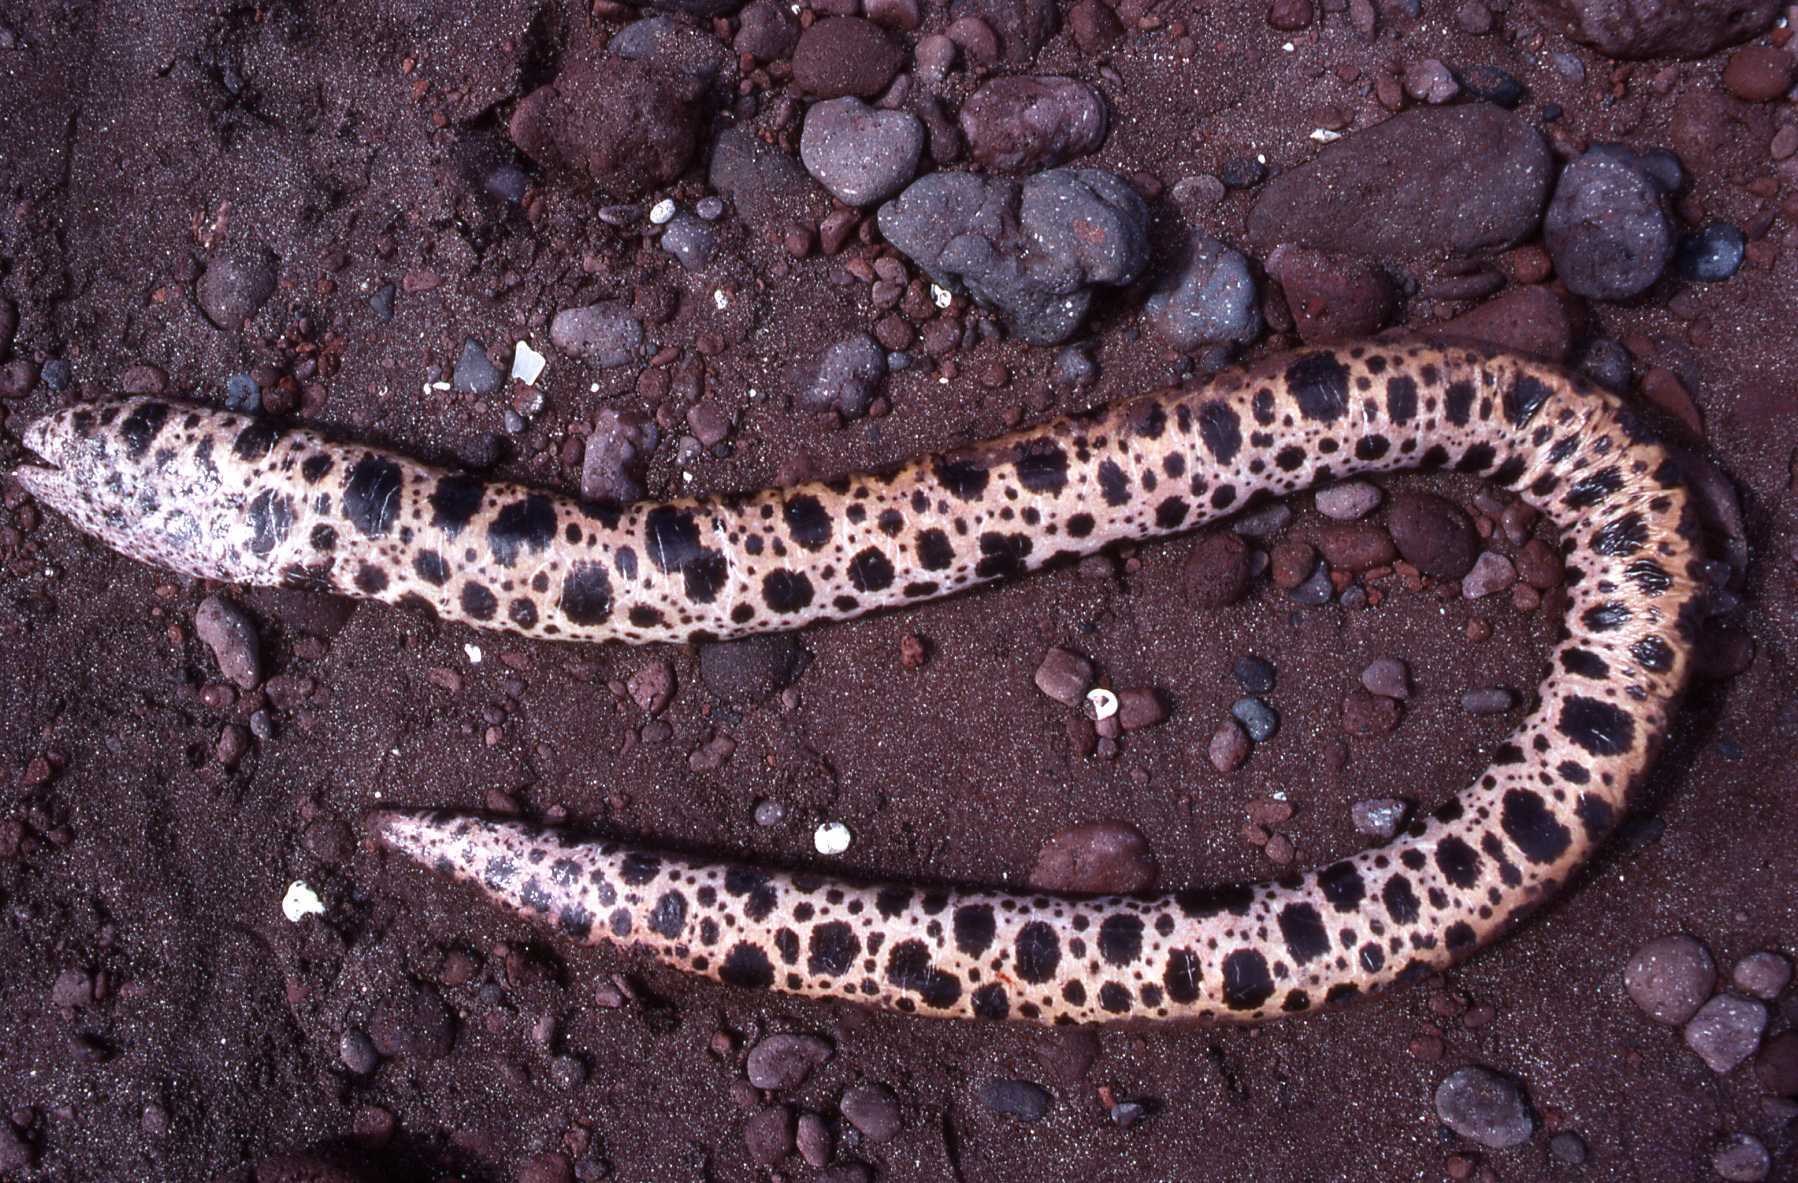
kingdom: Animalia
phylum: Chordata
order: Anguilliformes
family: Muraenidae
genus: Scuticaria
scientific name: Scuticaria tigrina
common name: Tiger moray
